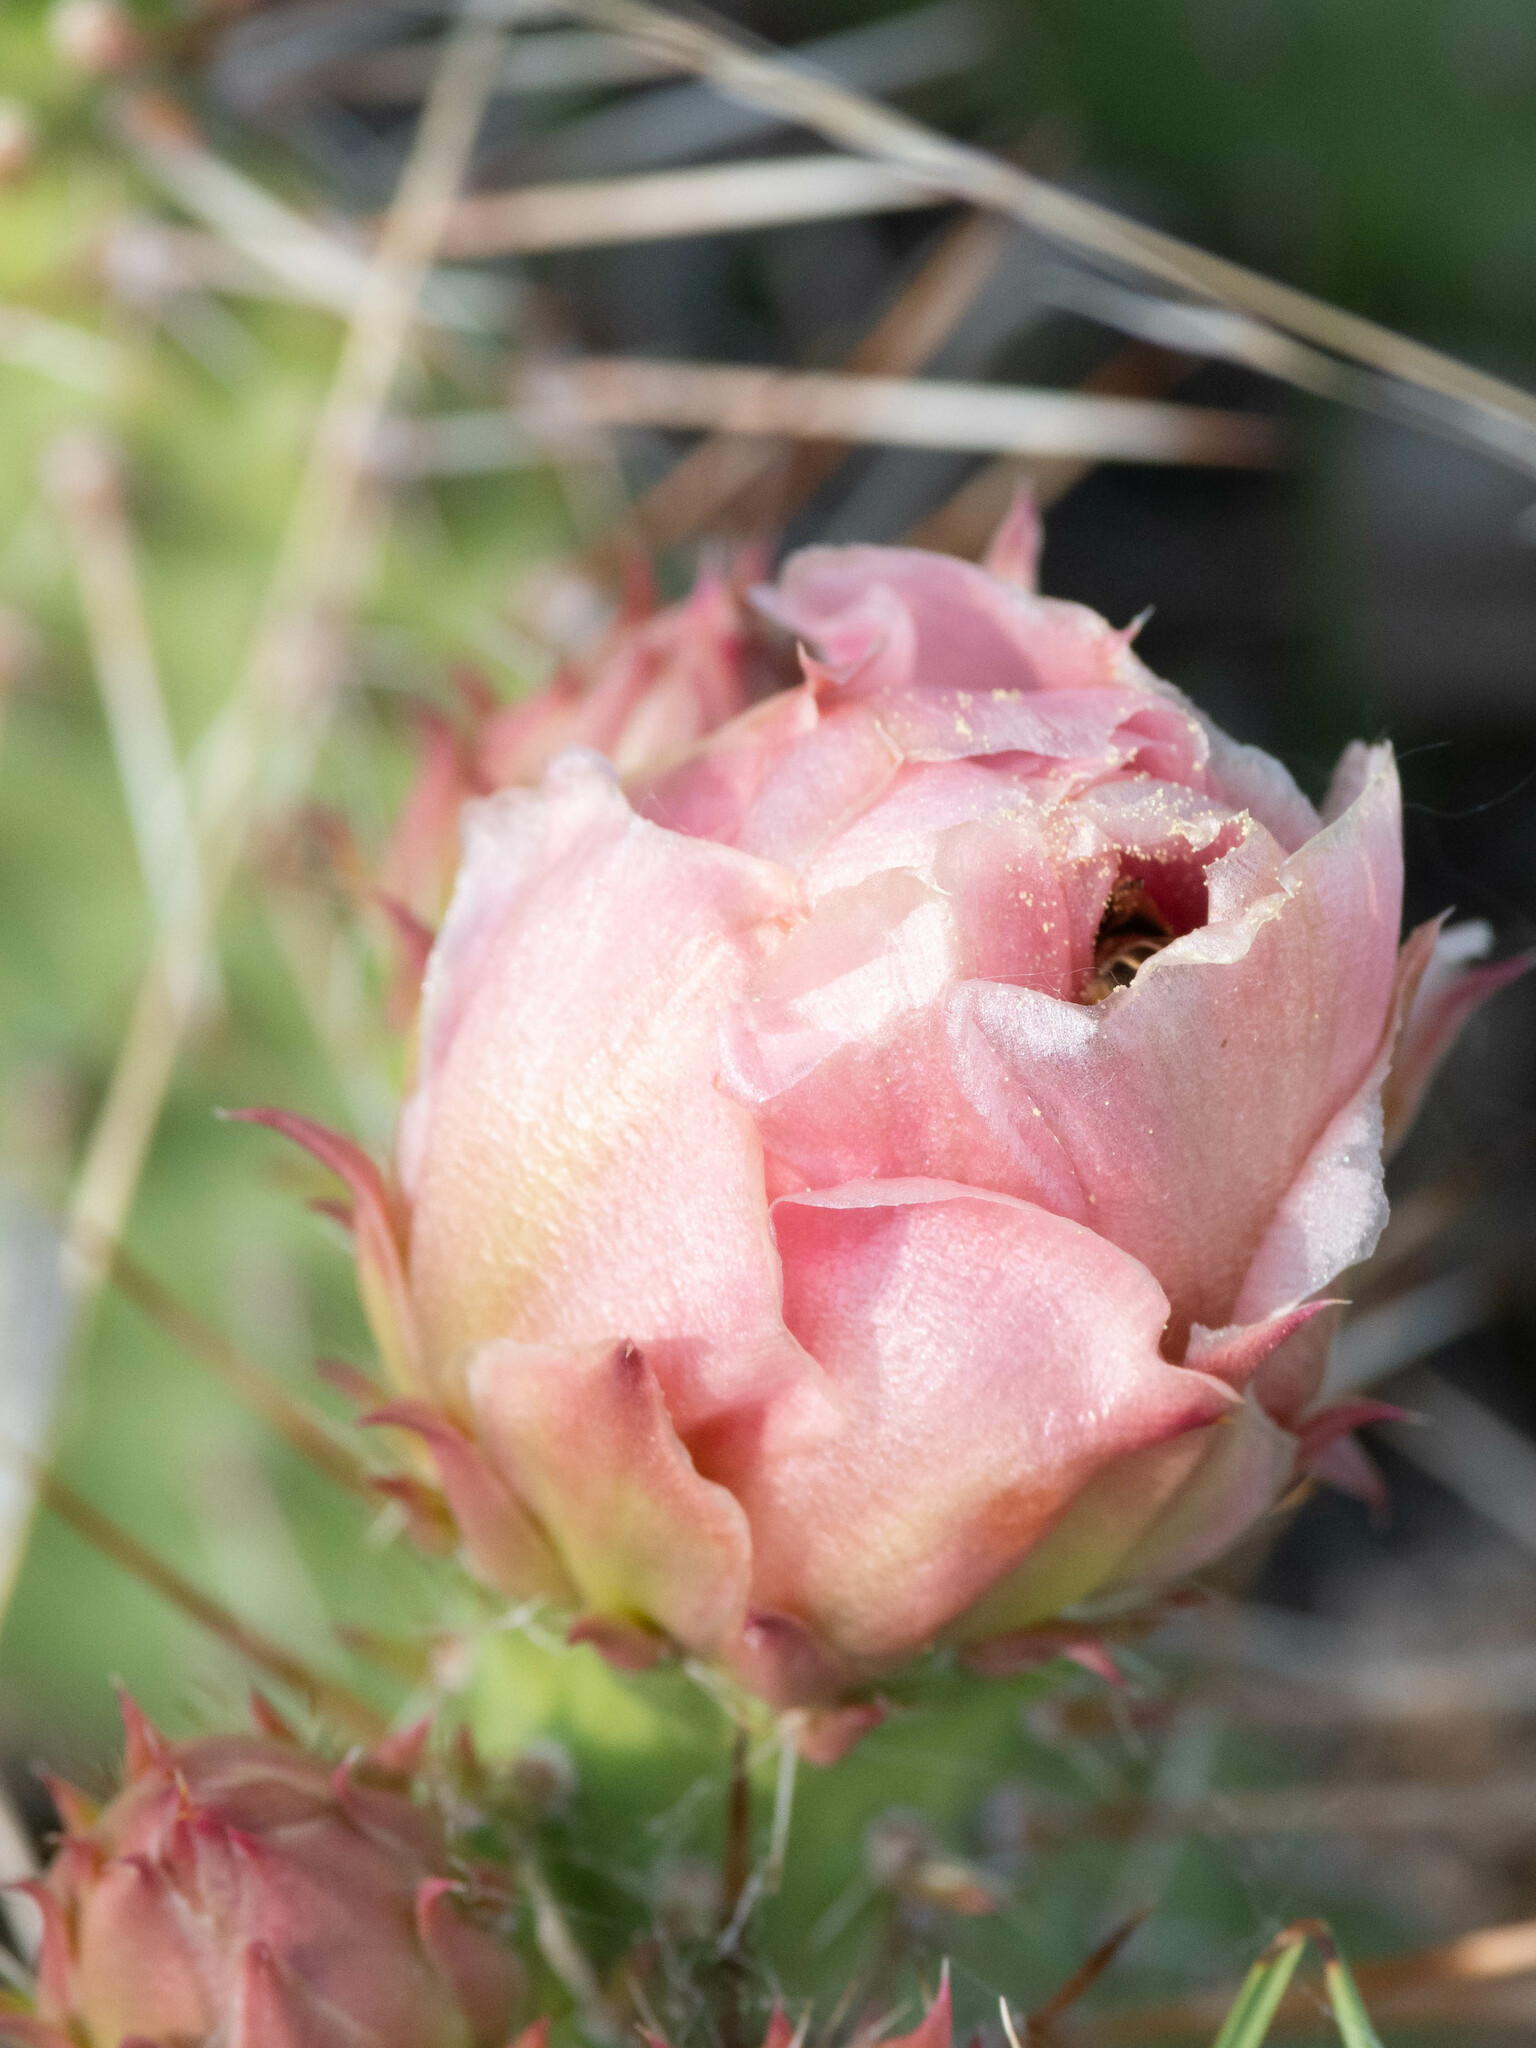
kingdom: Plantae
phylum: Tracheophyta
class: Magnoliopsida
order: Caryophyllales
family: Cactaceae
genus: Opuntia
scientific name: Opuntia polyacantha
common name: Plains prickly-pear
